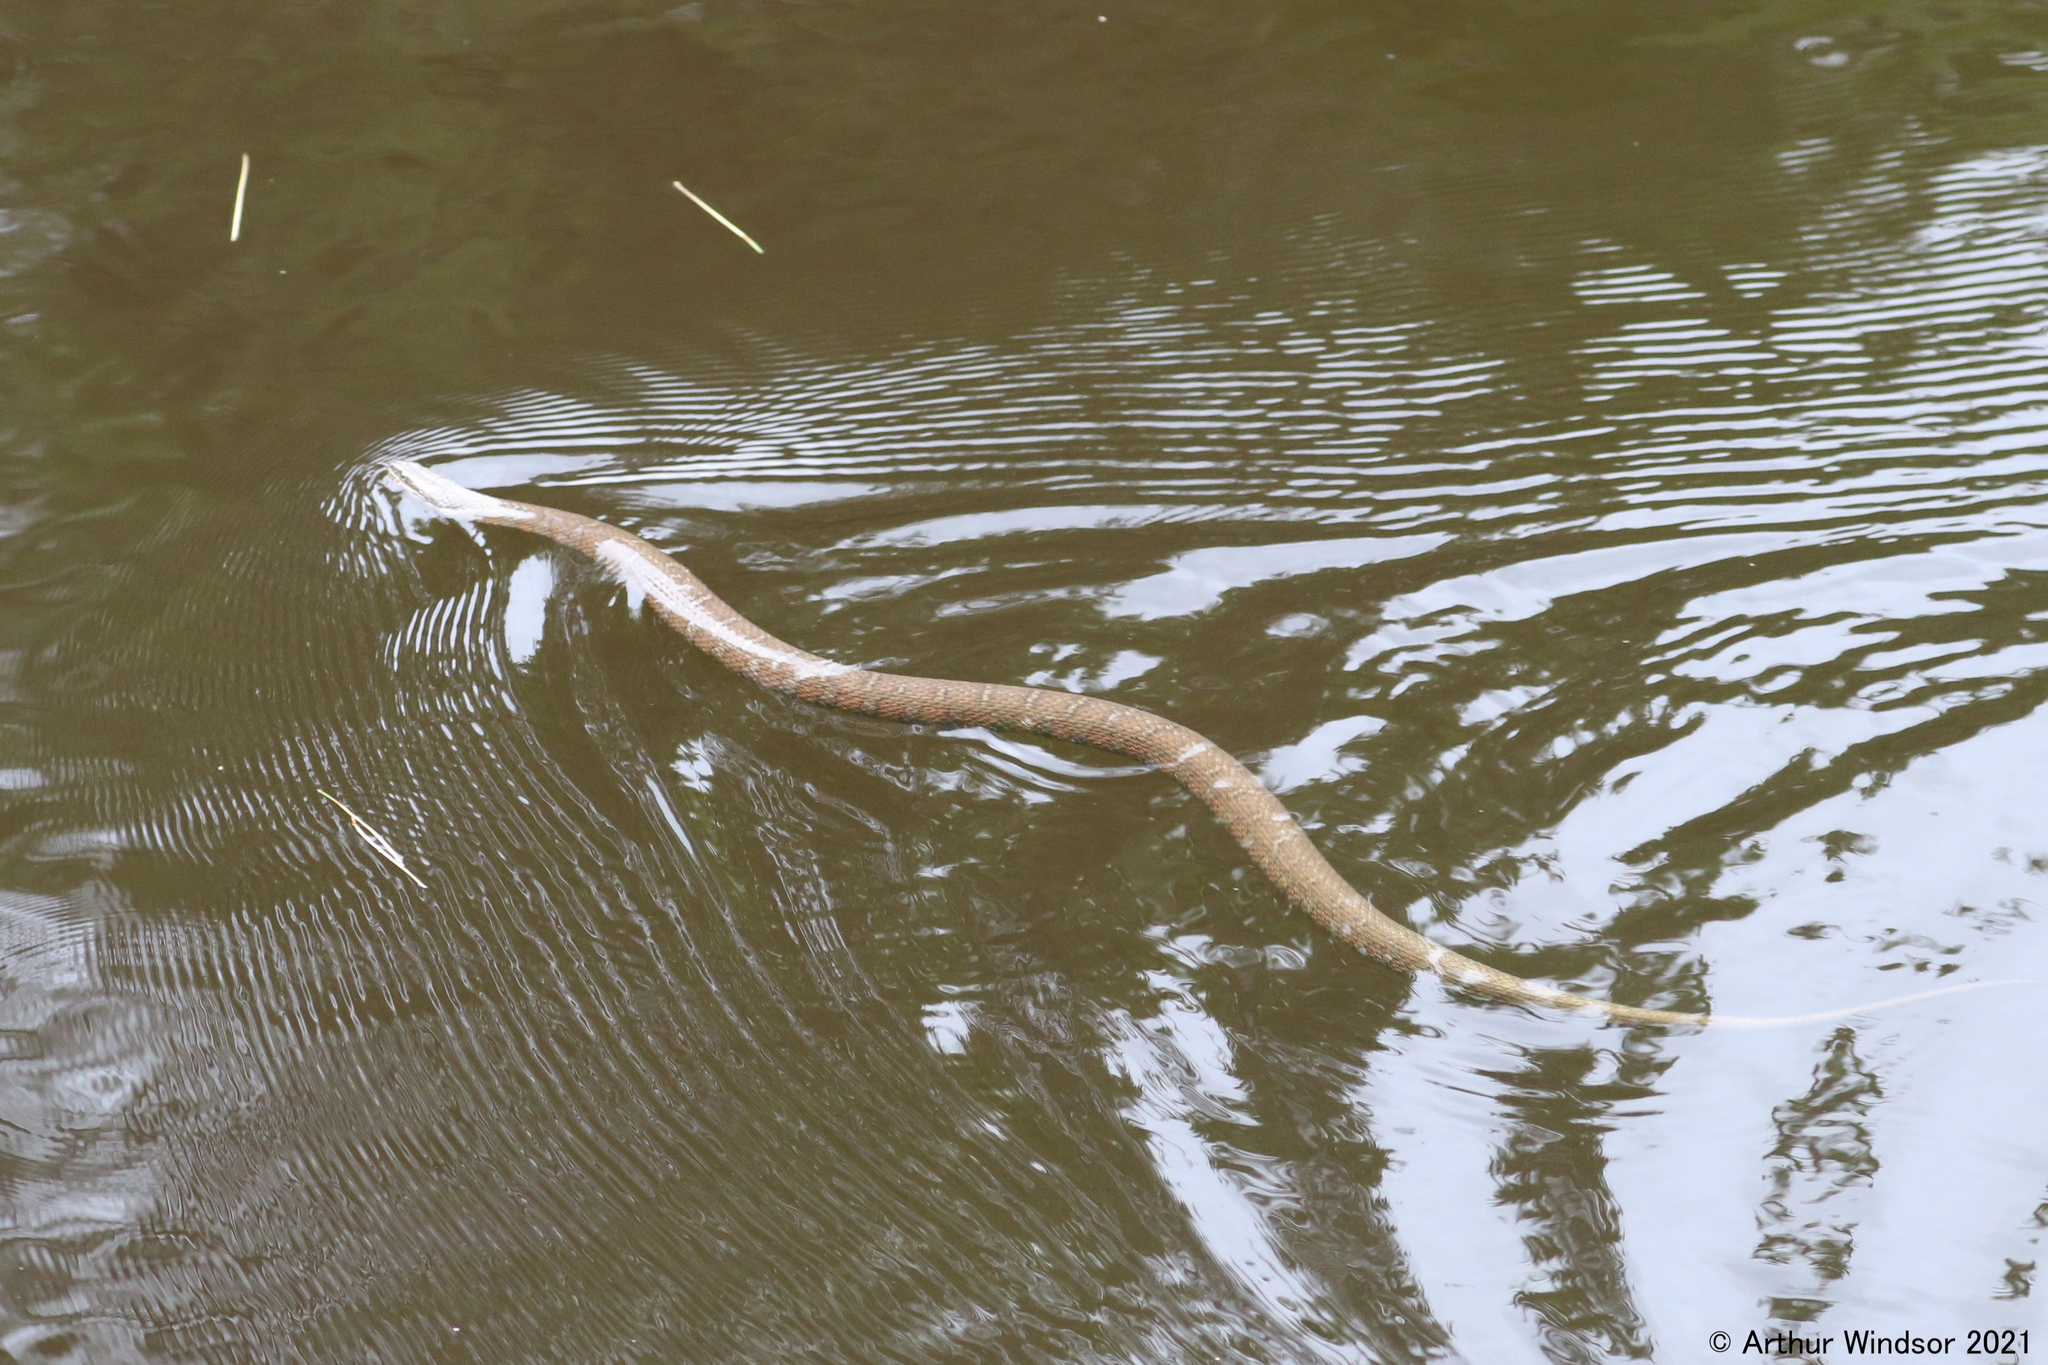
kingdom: Animalia
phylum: Chordata
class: Squamata
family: Colubridae
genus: Nerodia
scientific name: Nerodia sipedon
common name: Northern water snake
